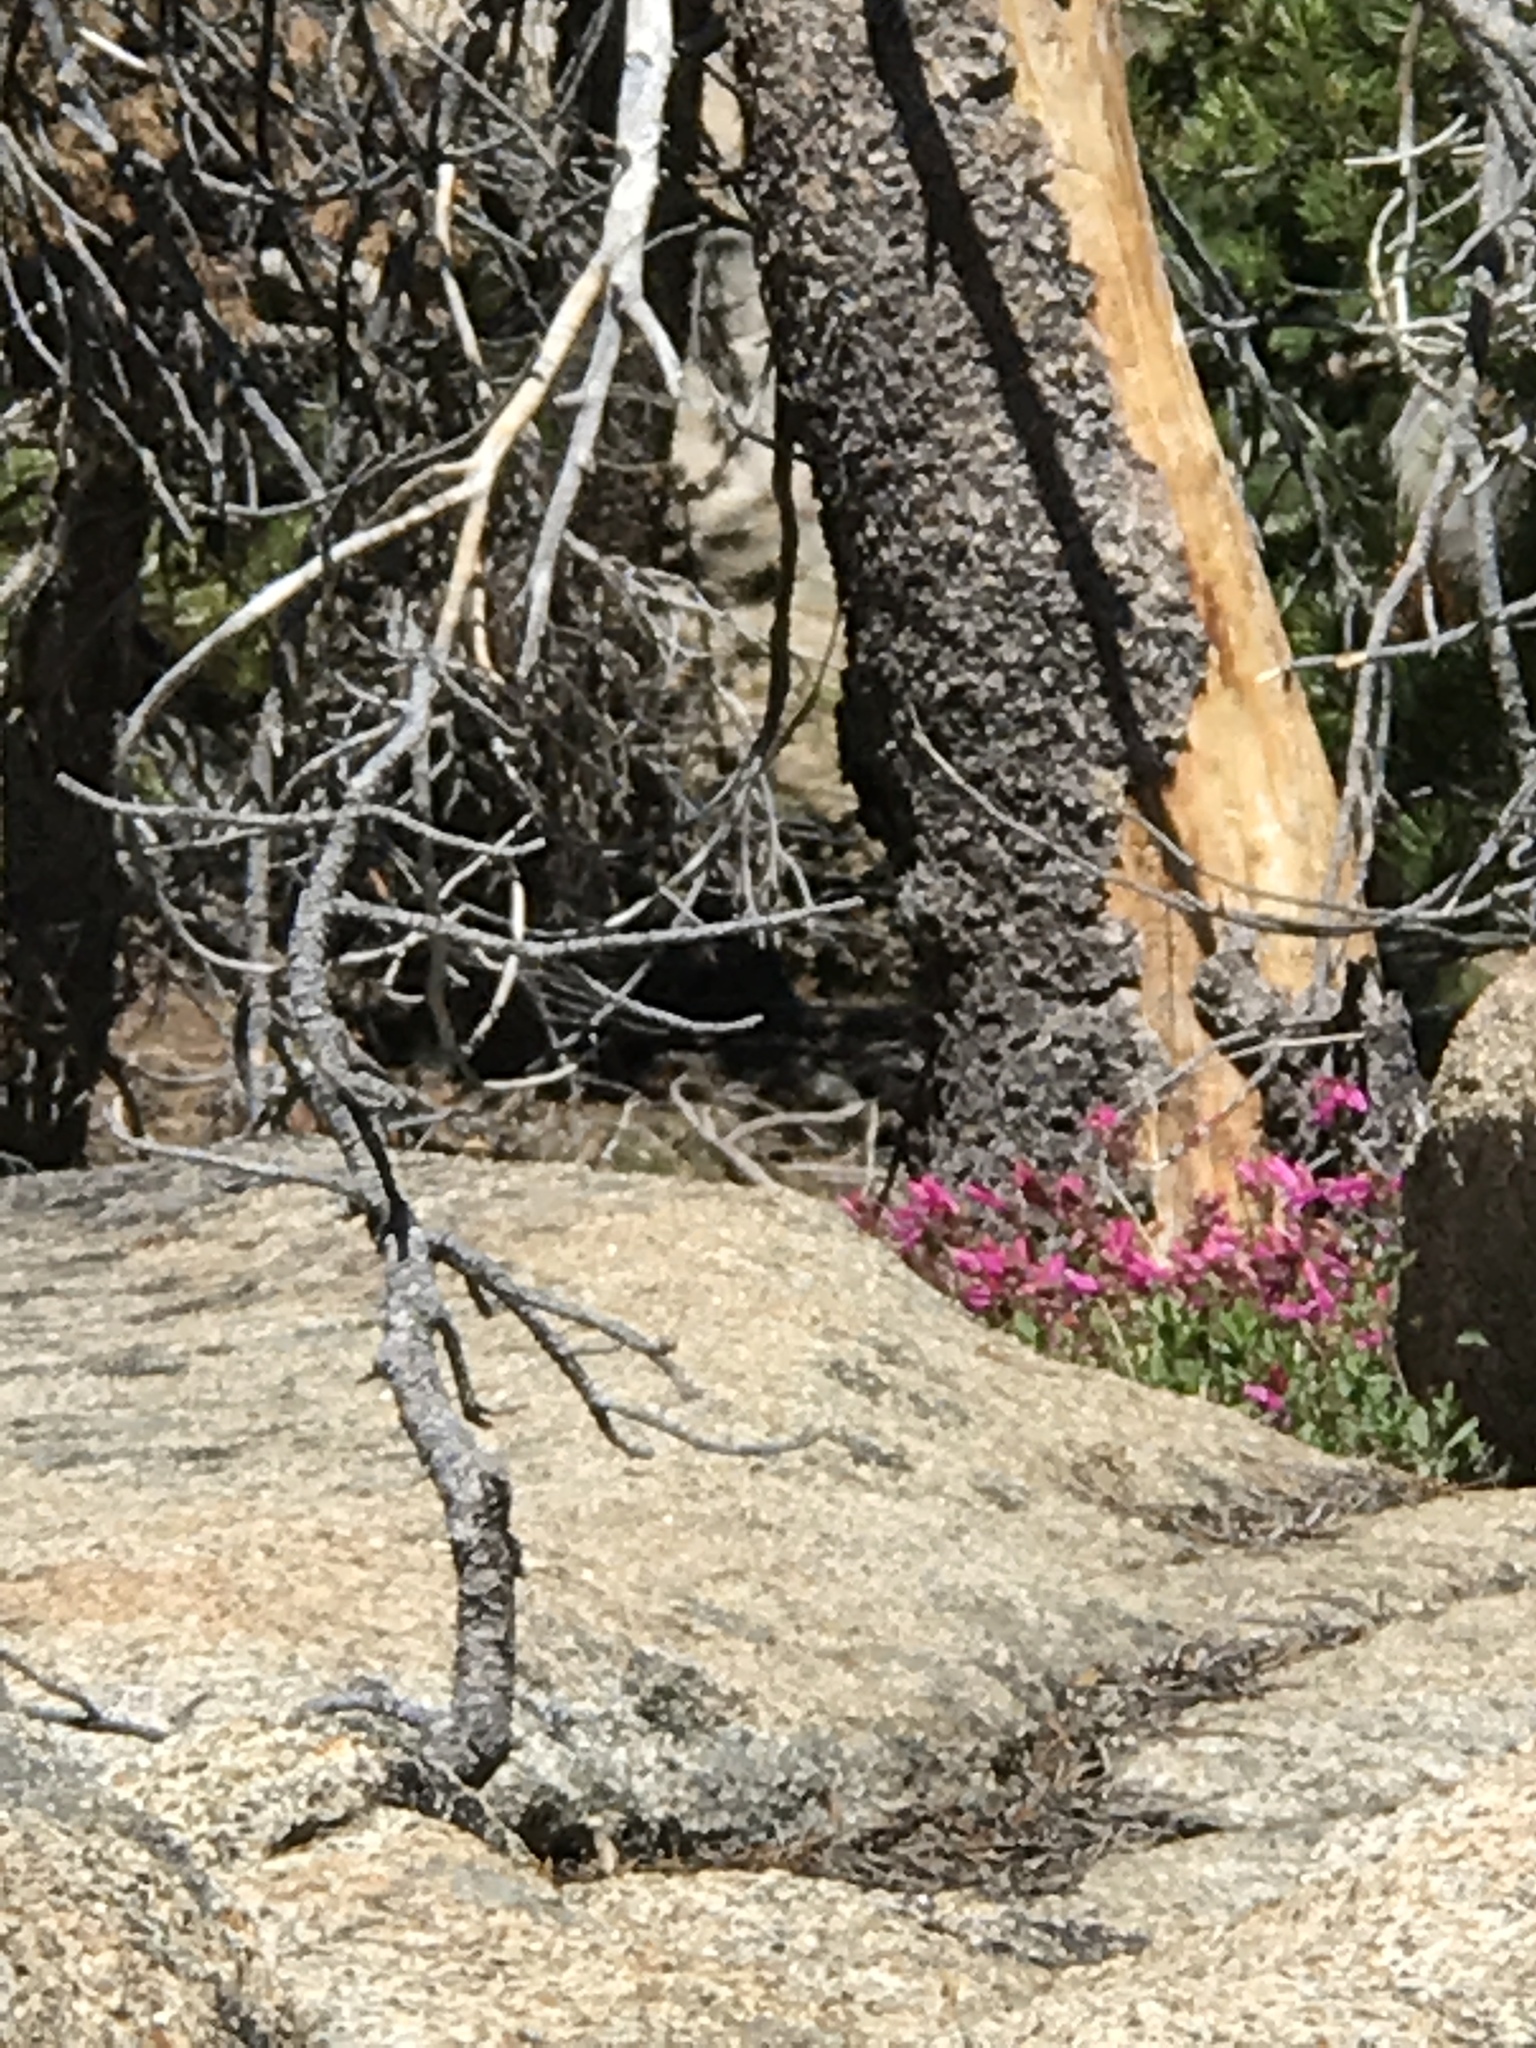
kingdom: Plantae
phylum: Tracheophyta
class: Magnoliopsida
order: Lamiales
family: Plantaginaceae
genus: Penstemon
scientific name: Penstemon newberryi
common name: Mountain-pride
